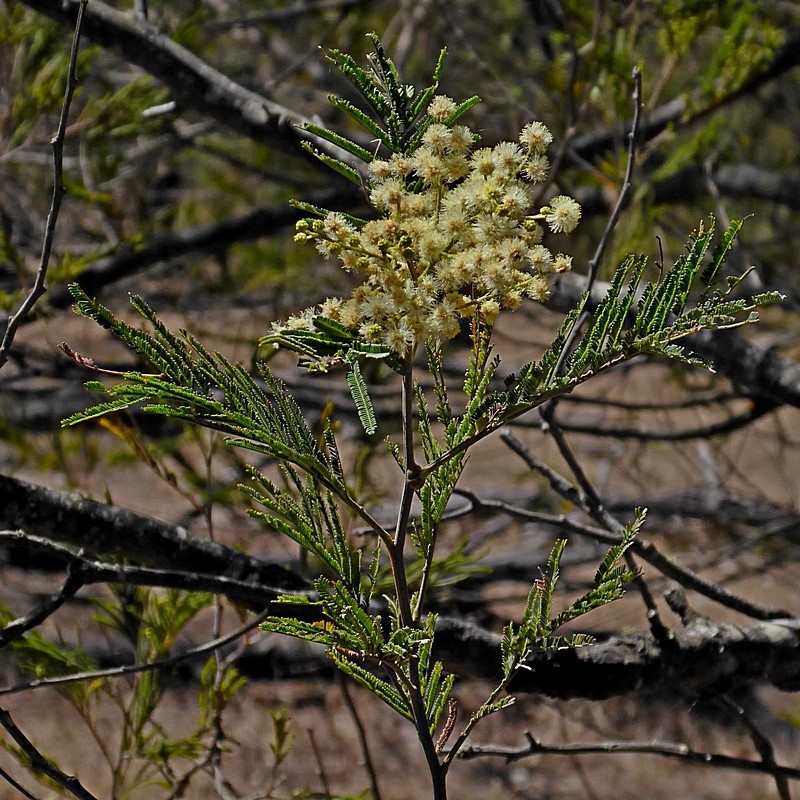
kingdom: Plantae
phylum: Tracheophyta
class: Magnoliopsida
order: Fabales
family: Fabaceae
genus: Acacia
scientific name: Acacia mearnsii
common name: Black wattle
